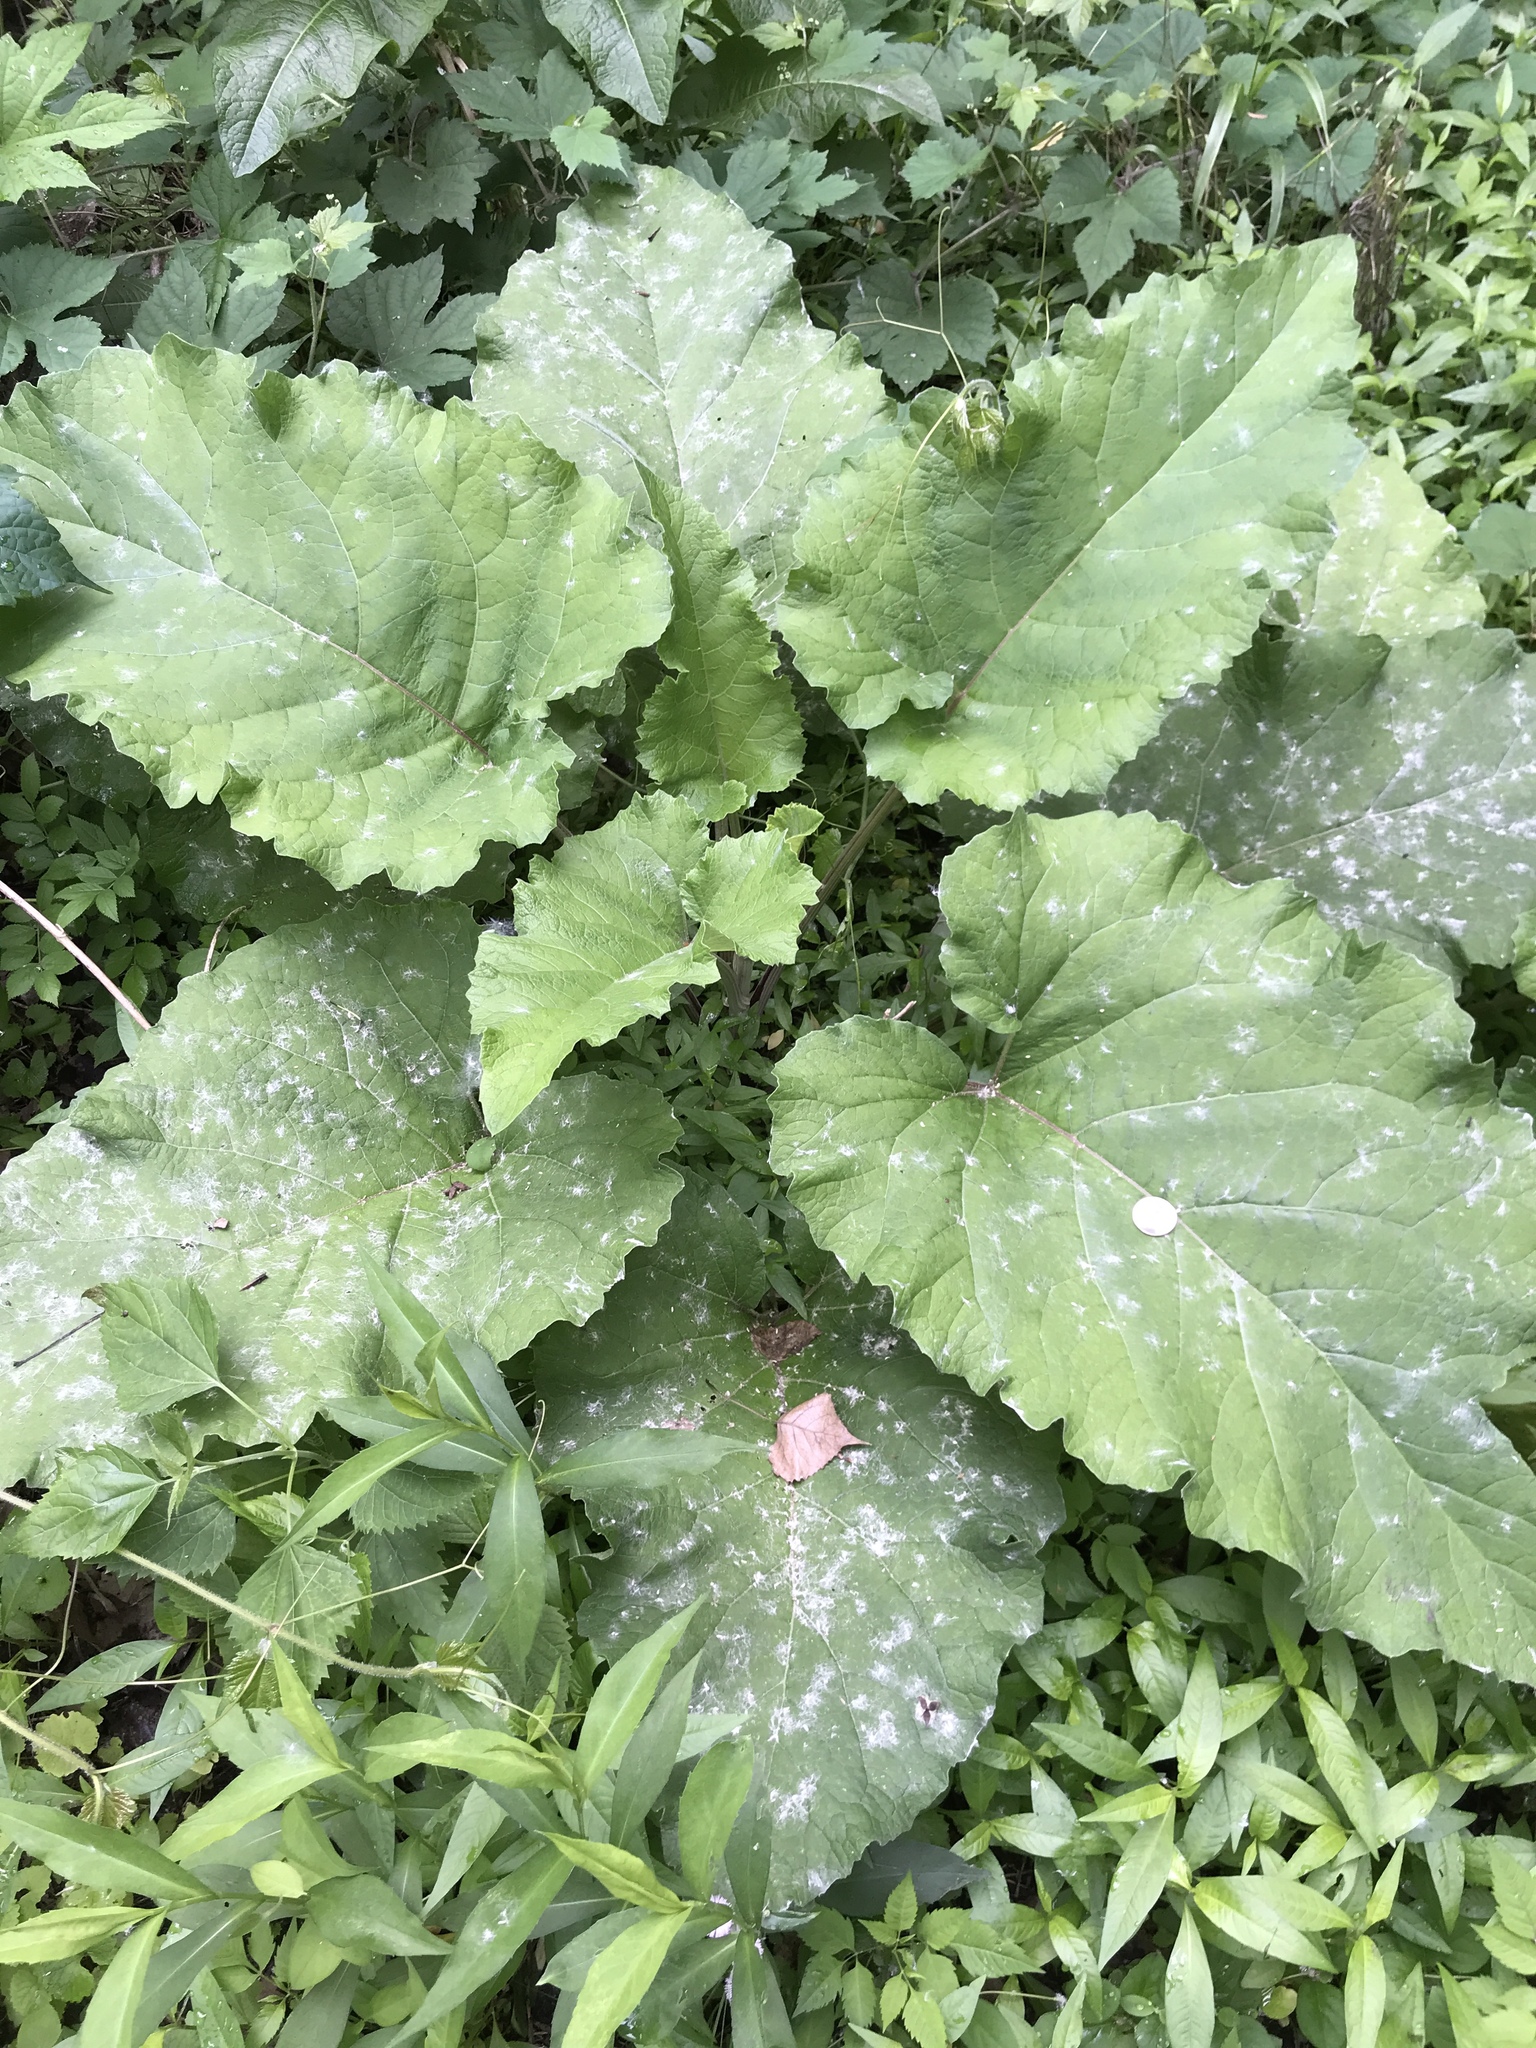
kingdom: Plantae
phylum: Tracheophyta
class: Magnoliopsida
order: Asterales
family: Asteraceae
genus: Arctium
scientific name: Arctium
